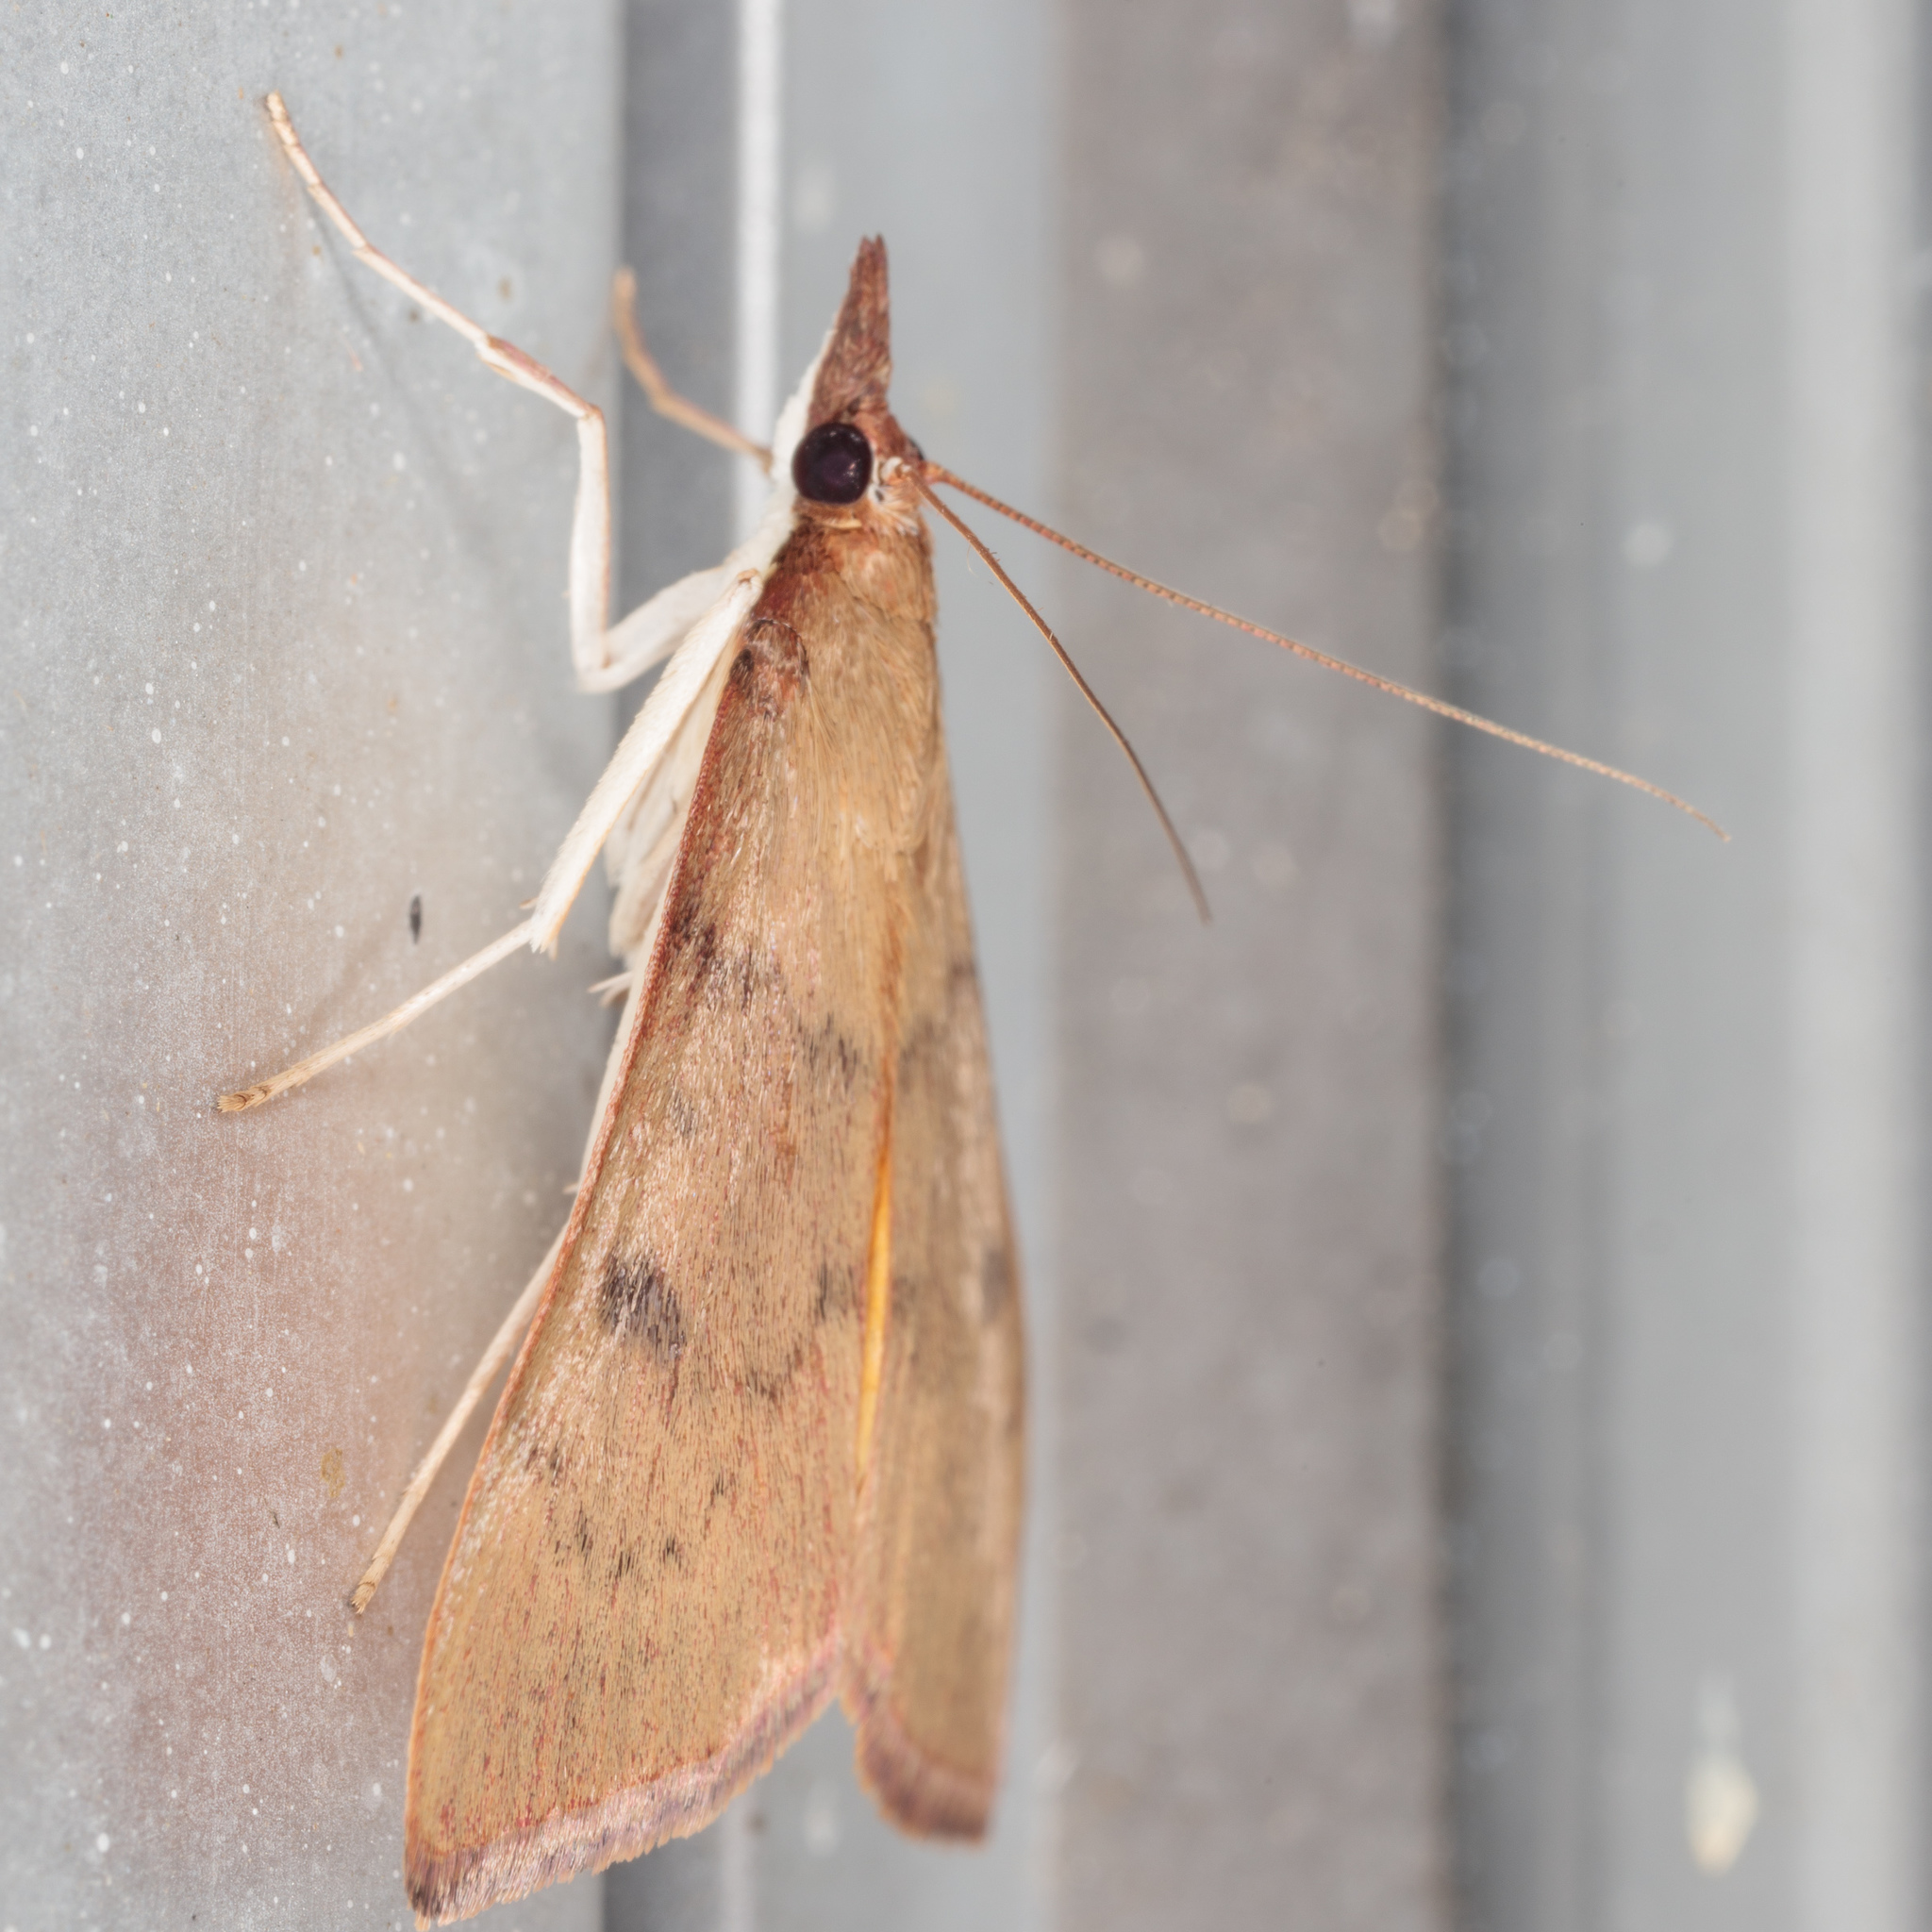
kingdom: Animalia
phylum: Arthropoda
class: Insecta
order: Lepidoptera
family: Crambidae
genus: Uresiphita
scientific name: Uresiphita reversalis
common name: Genista broom moth
